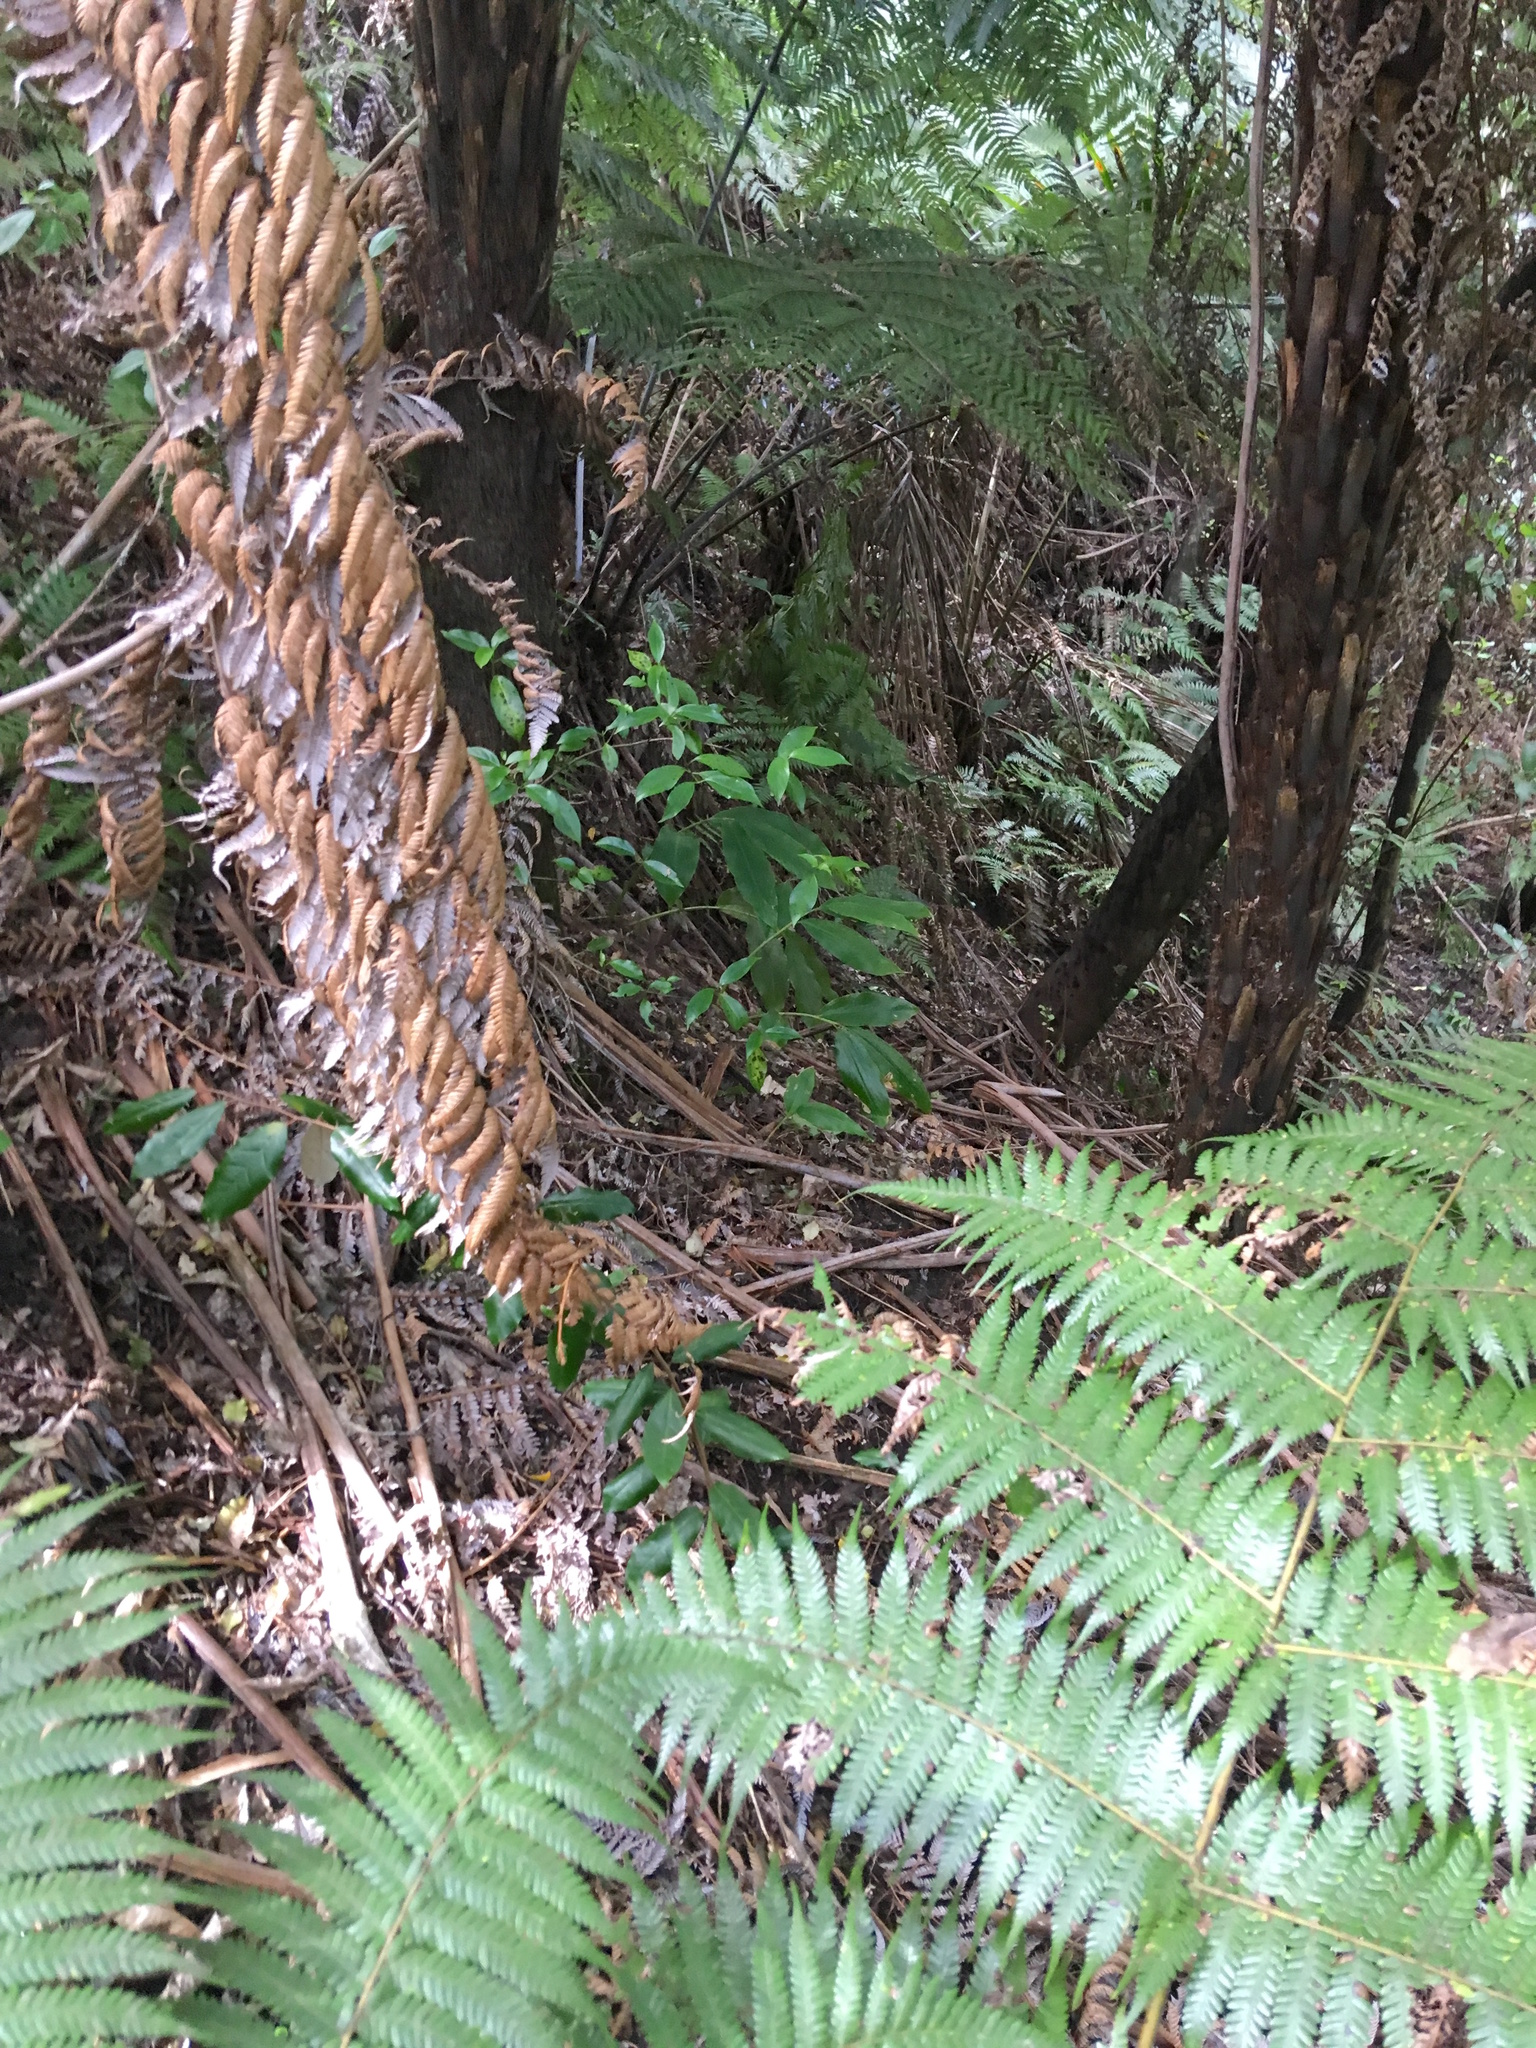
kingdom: Plantae
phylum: Tracheophyta
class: Magnoliopsida
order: Rosales
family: Elaeagnaceae
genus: Elaeagnus
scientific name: Elaeagnus reflexa
